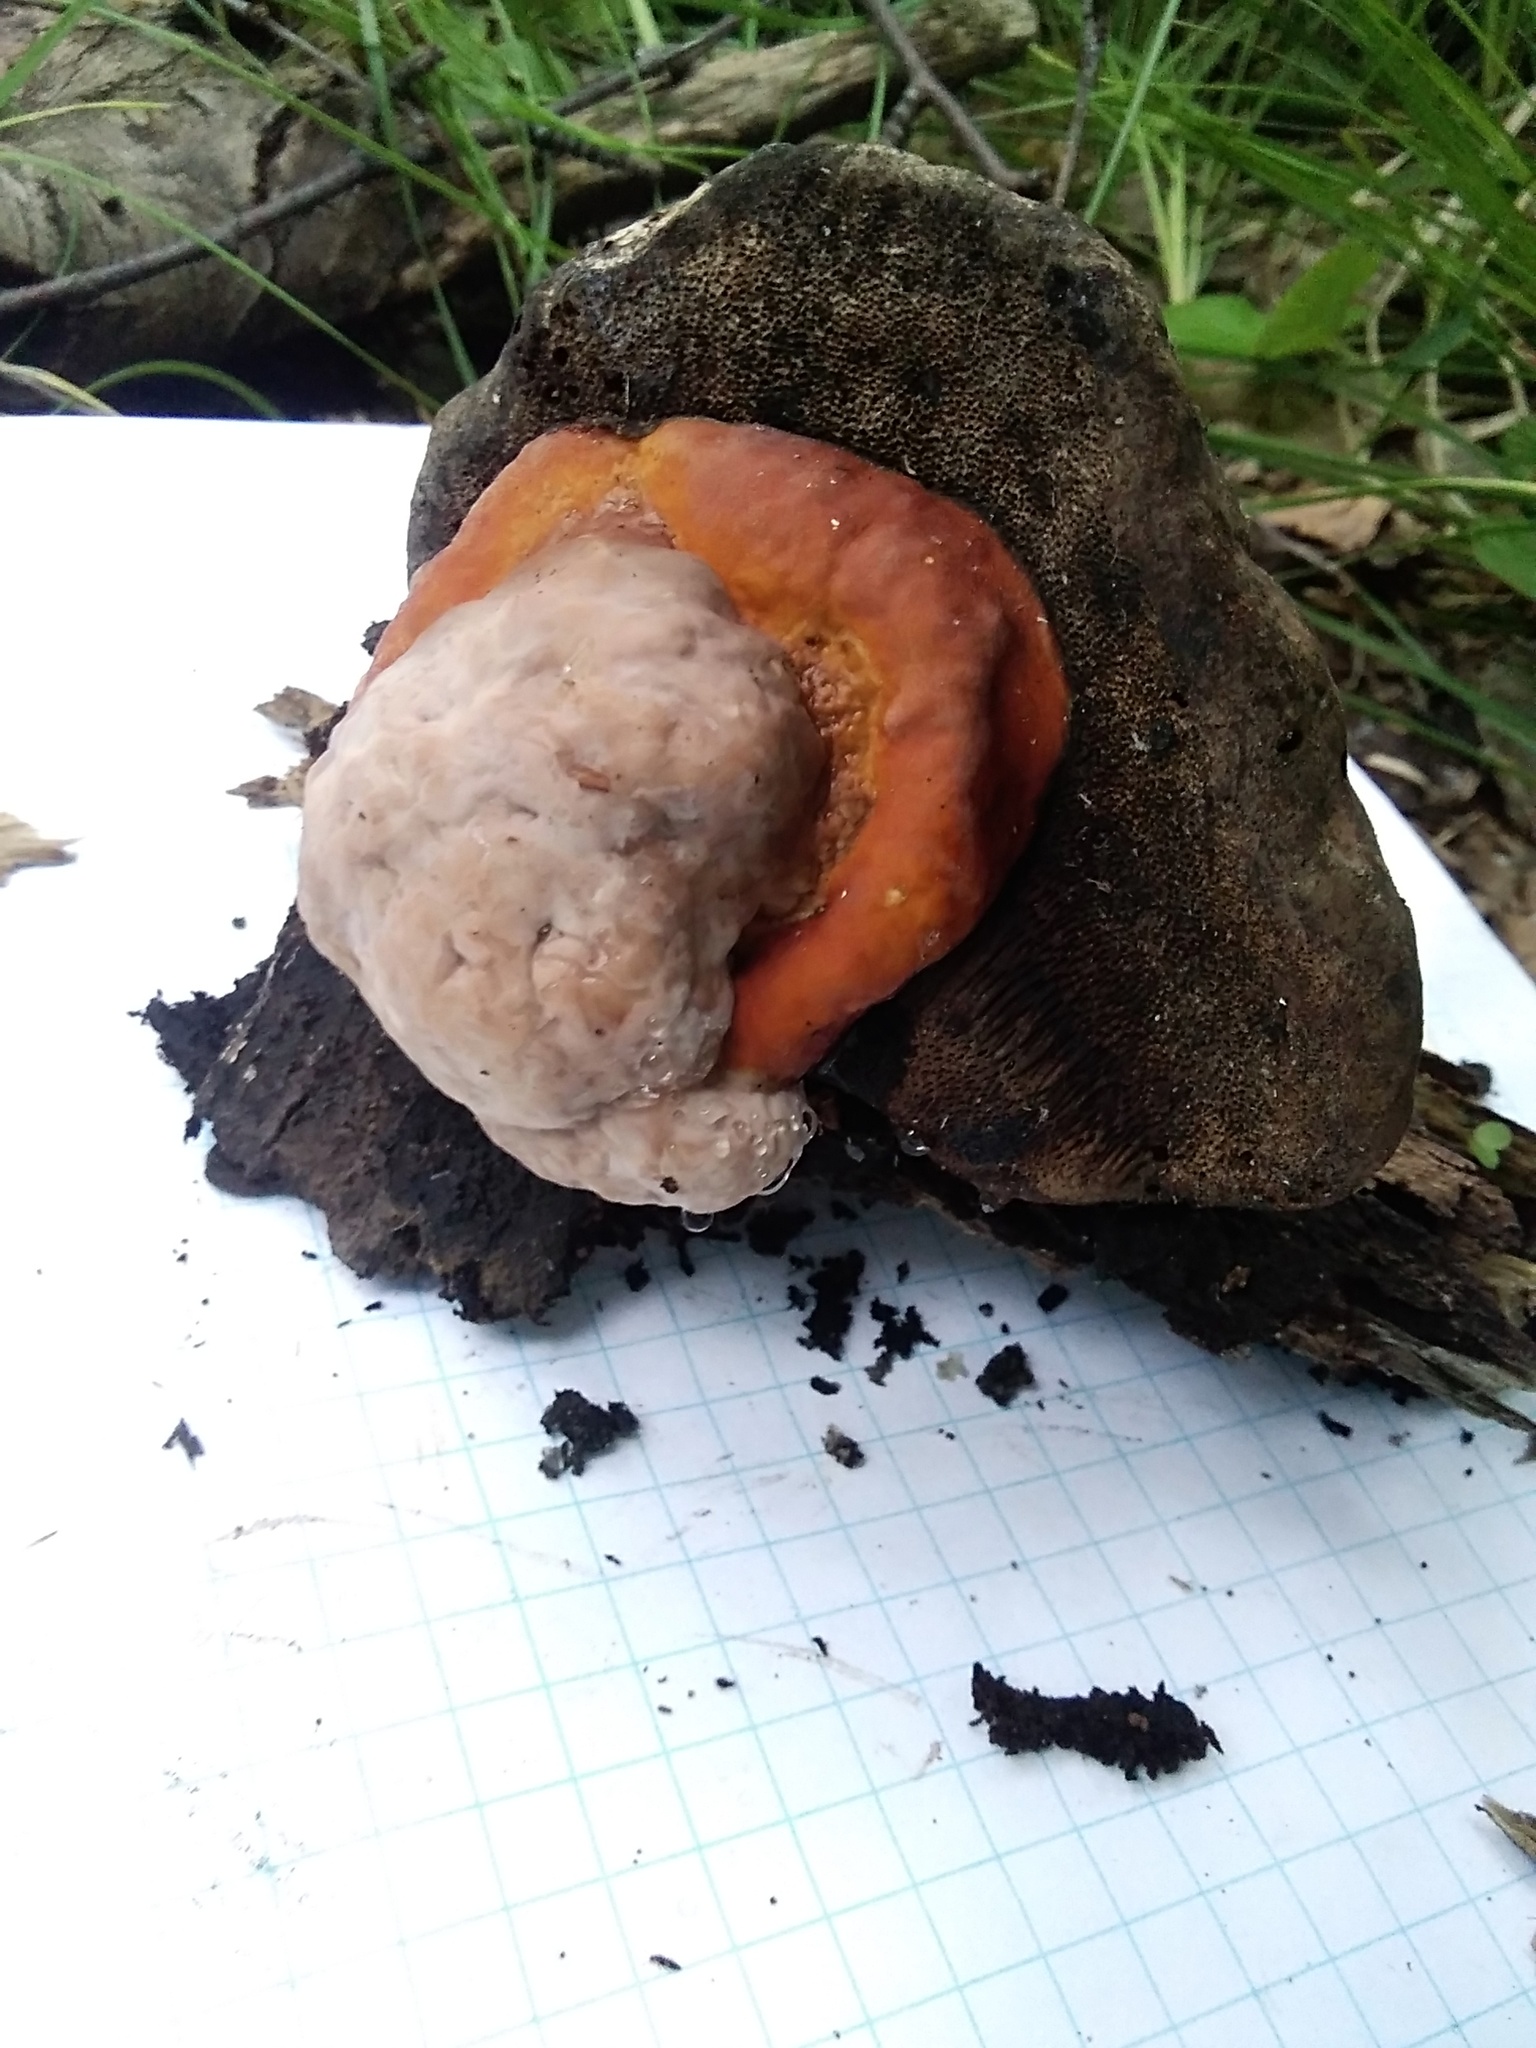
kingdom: Fungi
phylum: Basidiomycota
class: Agaricomycetes
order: Polyporales
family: Fomitopsidaceae
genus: Fomitopsis
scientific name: Fomitopsis pinicola
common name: Red-belted bracket
